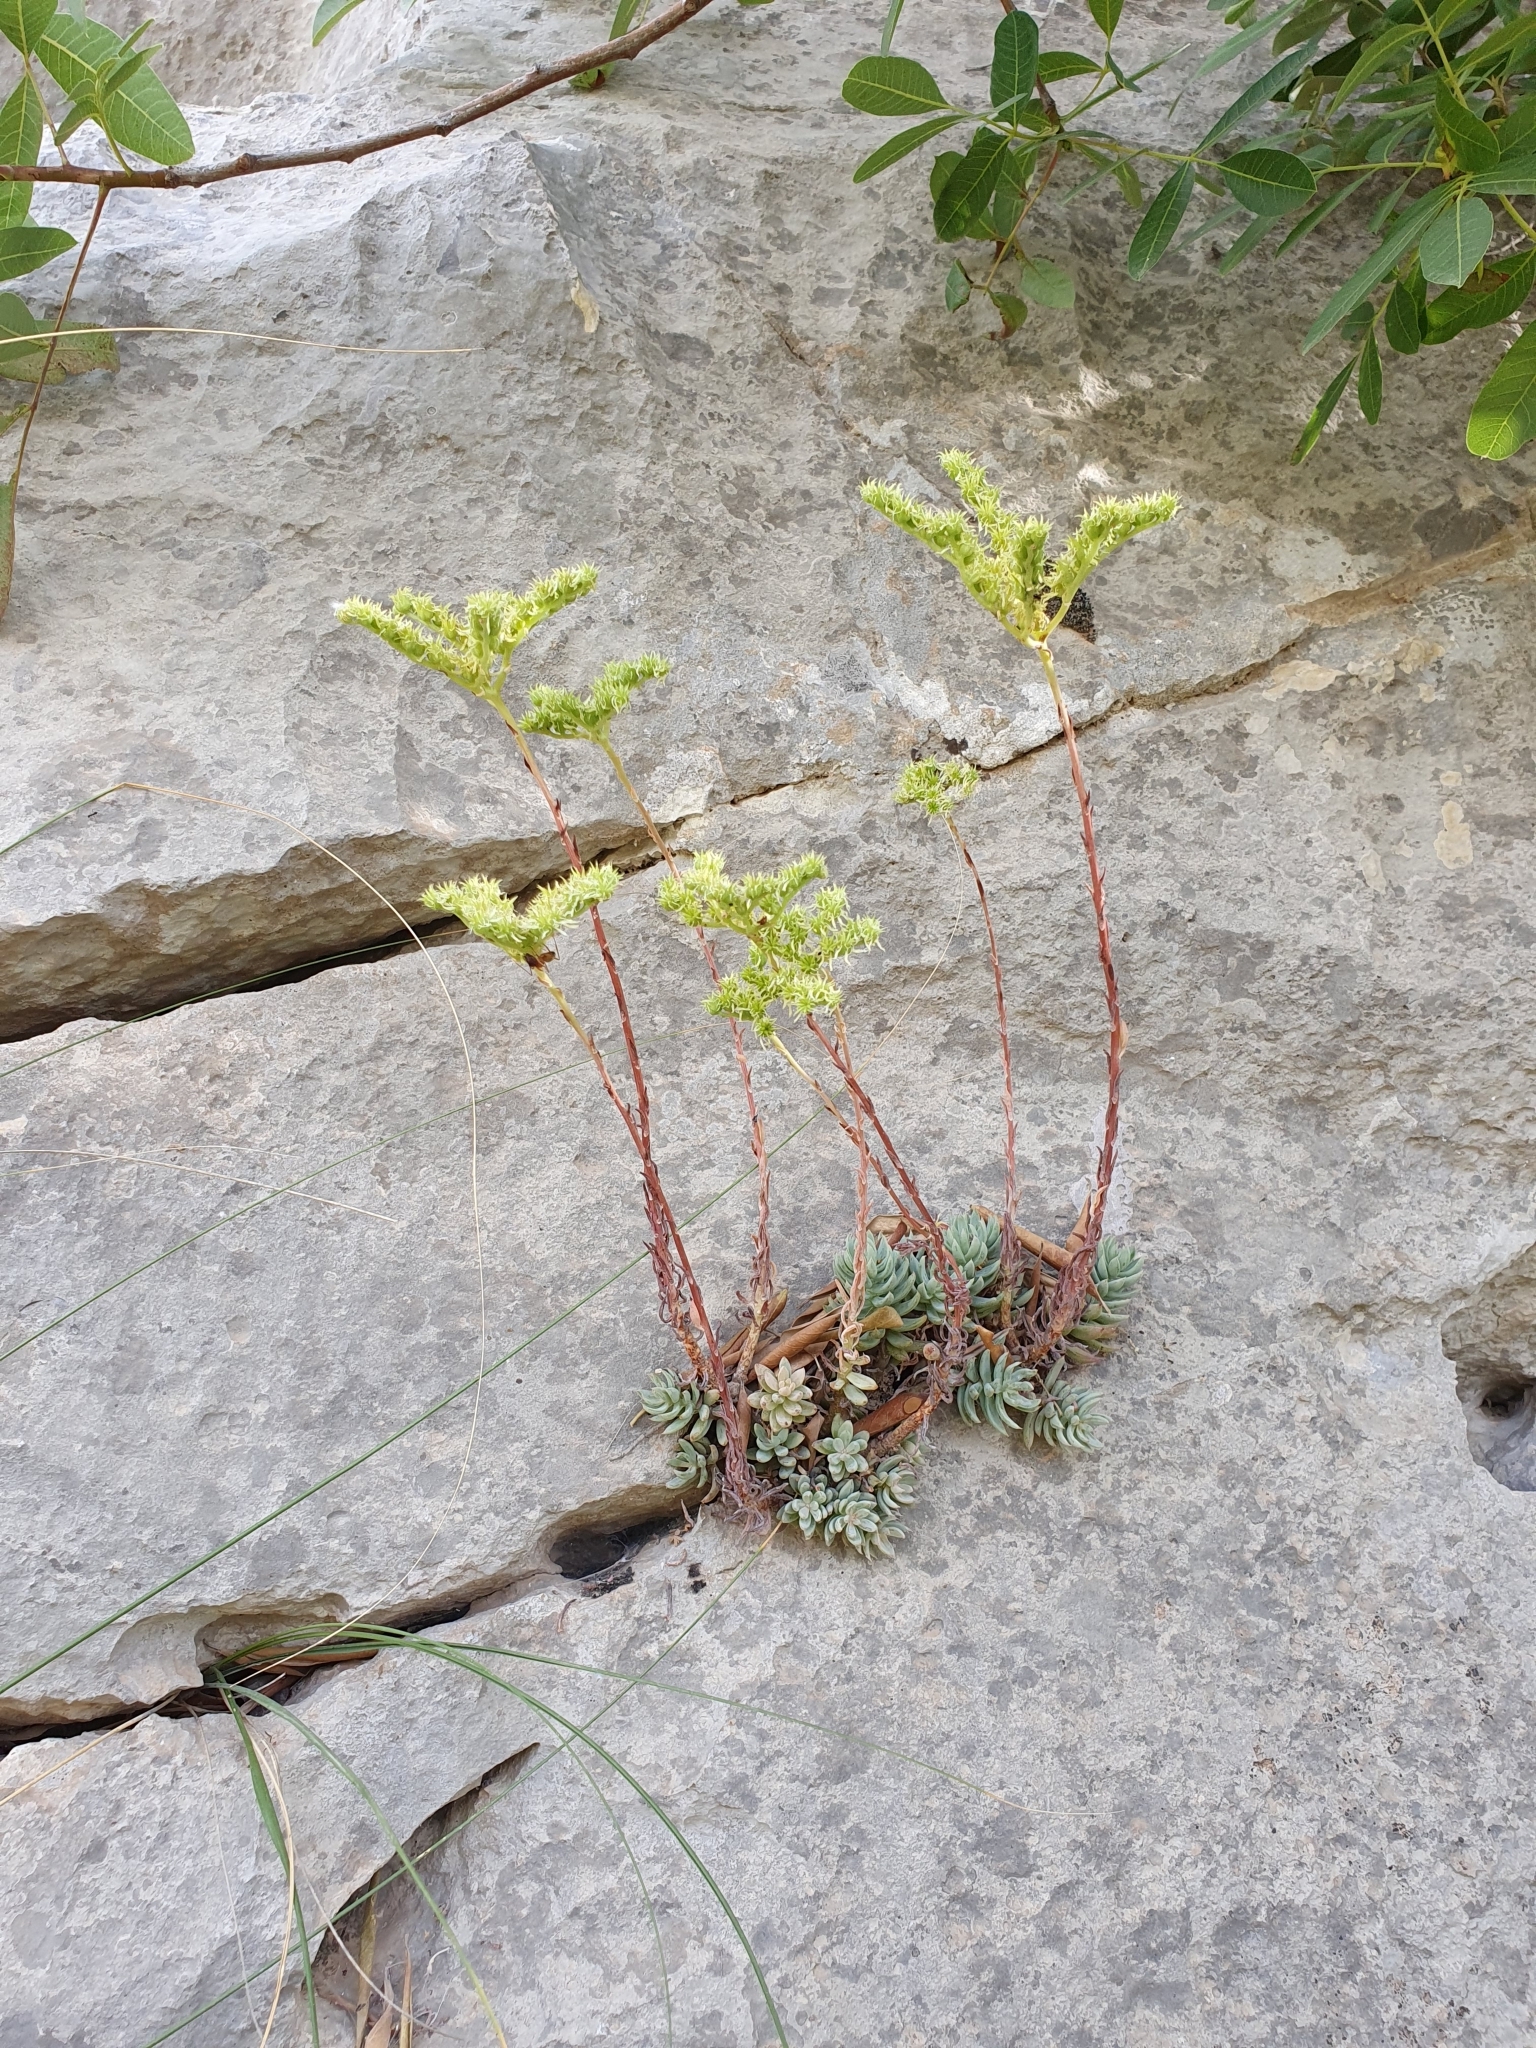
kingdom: Plantae
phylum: Tracheophyta
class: Magnoliopsida
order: Saxifragales
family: Crassulaceae
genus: Petrosedum
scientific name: Petrosedum sediforme
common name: Pale stonecrop
